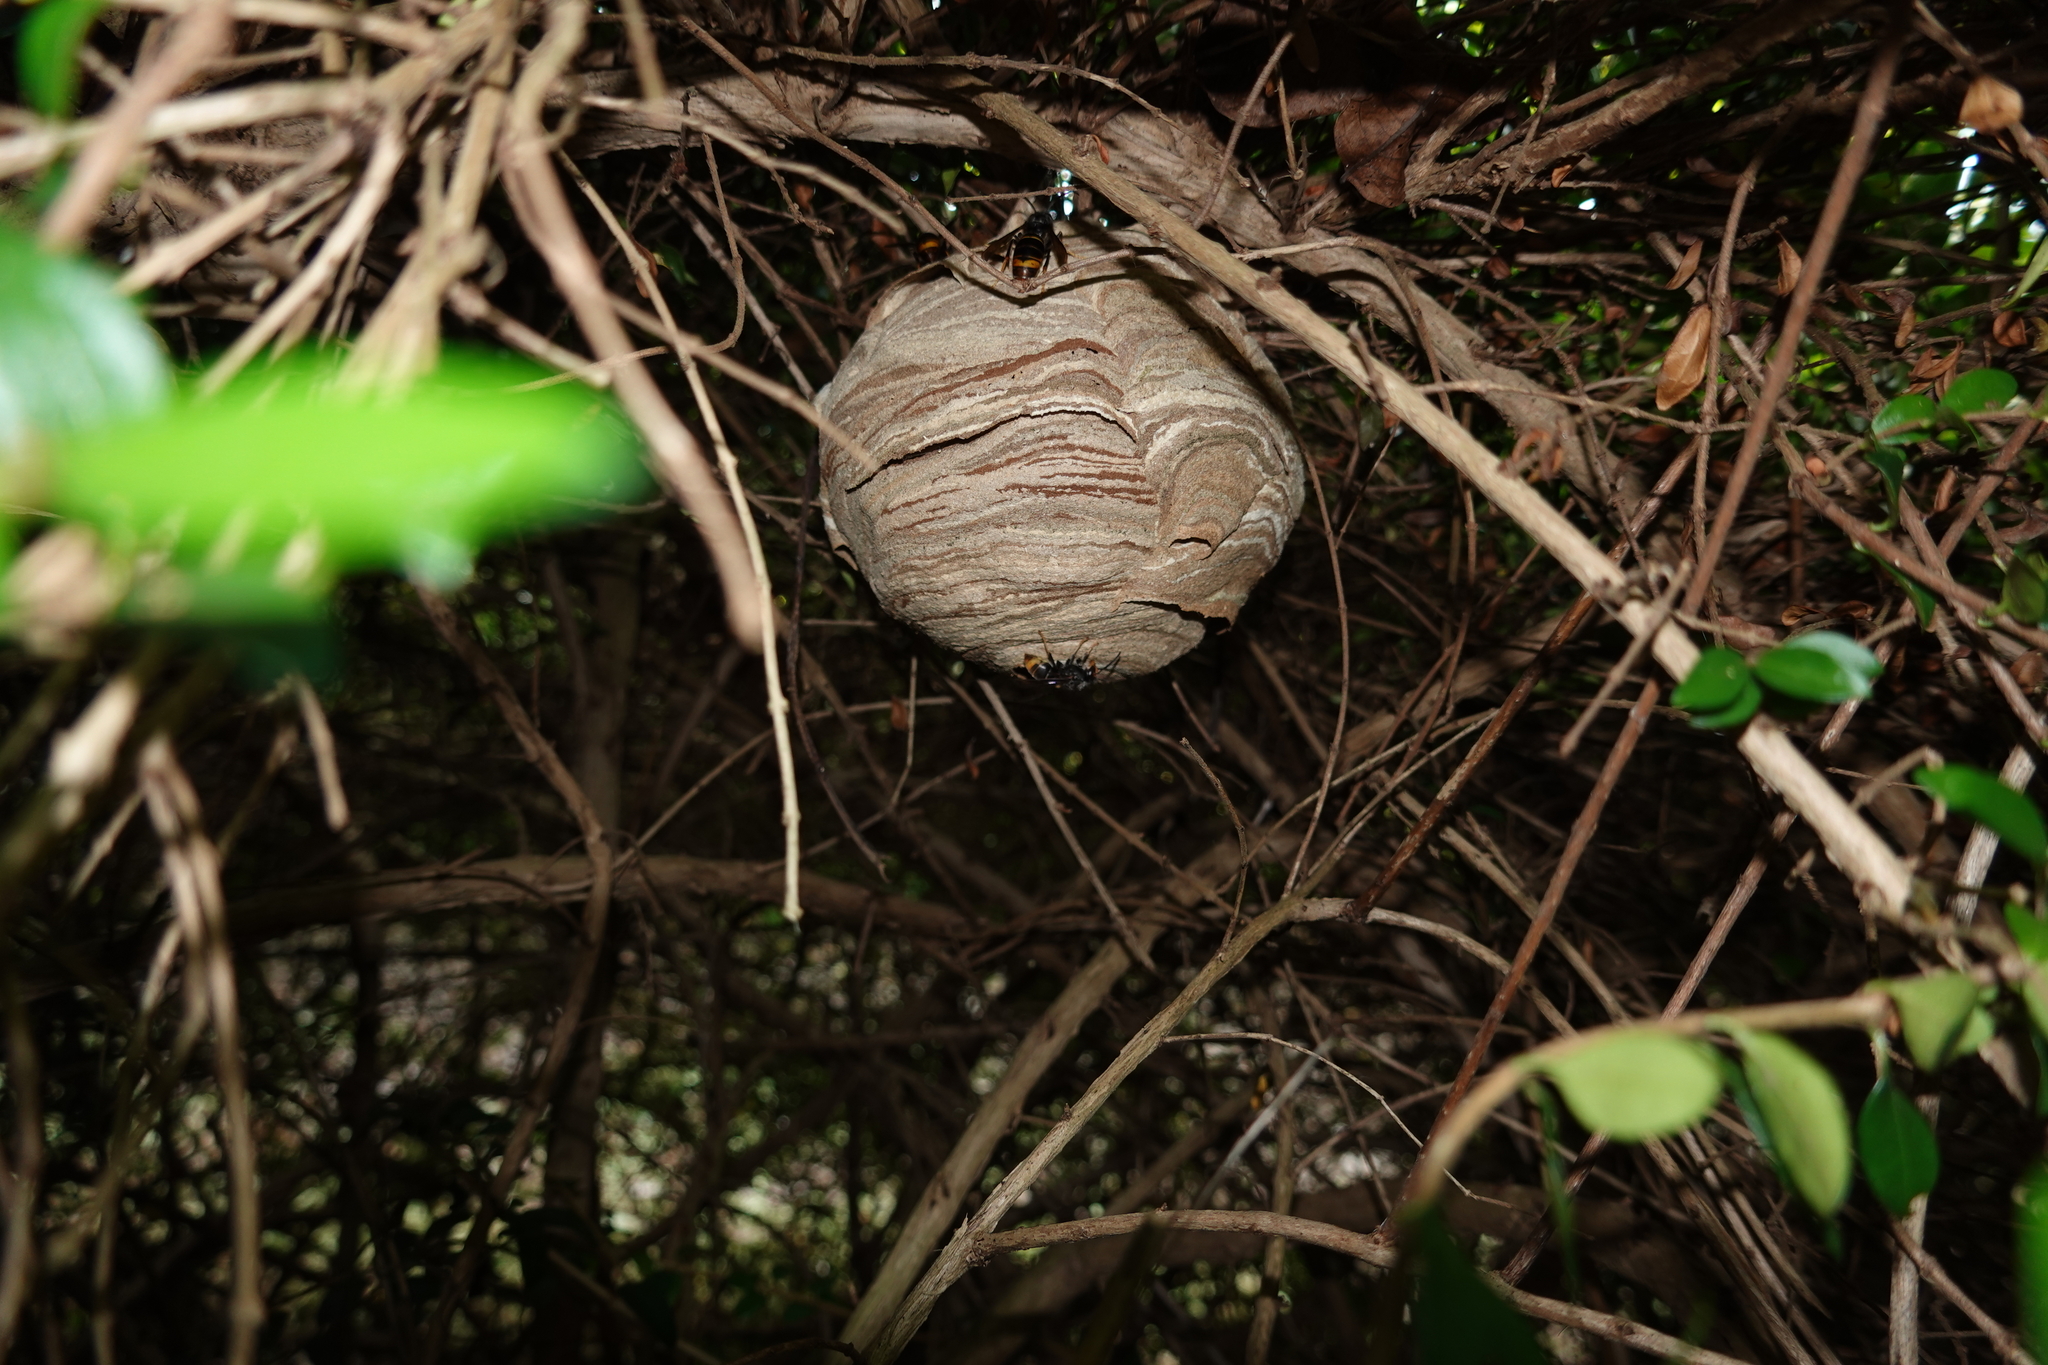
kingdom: Animalia
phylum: Arthropoda
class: Insecta
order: Hymenoptera
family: Vespidae
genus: Vespa
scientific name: Vespa velutina
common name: Asian hornet
